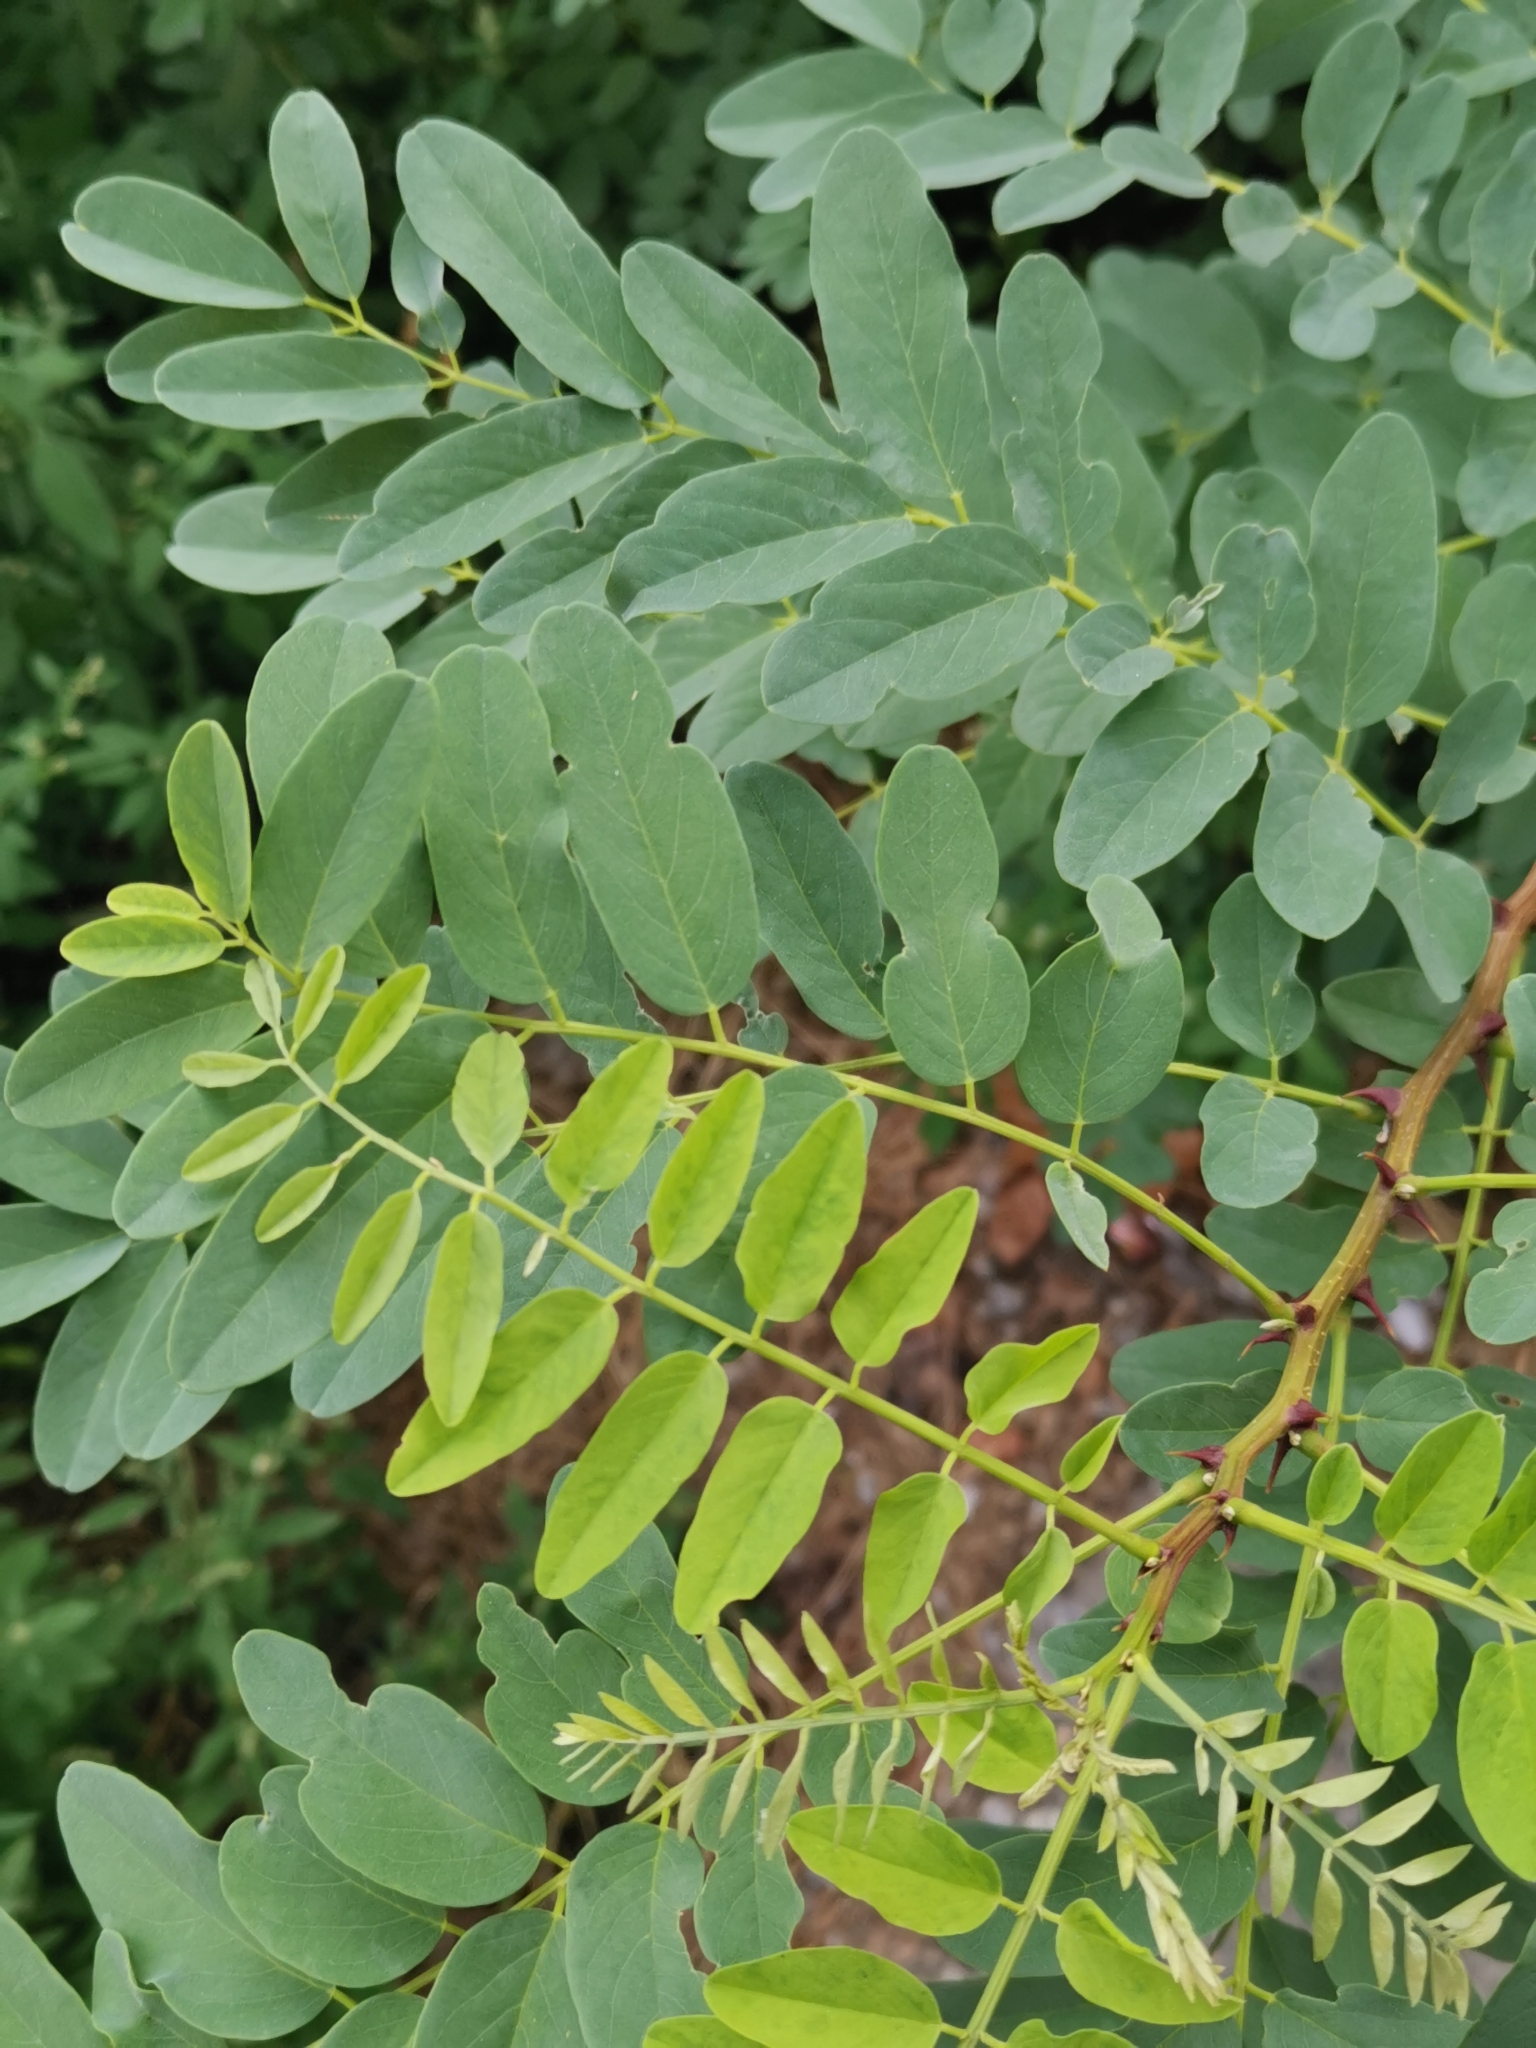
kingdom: Plantae
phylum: Tracheophyta
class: Magnoliopsida
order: Fabales
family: Fabaceae
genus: Robinia
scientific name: Robinia pseudoacacia
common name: Black locust
